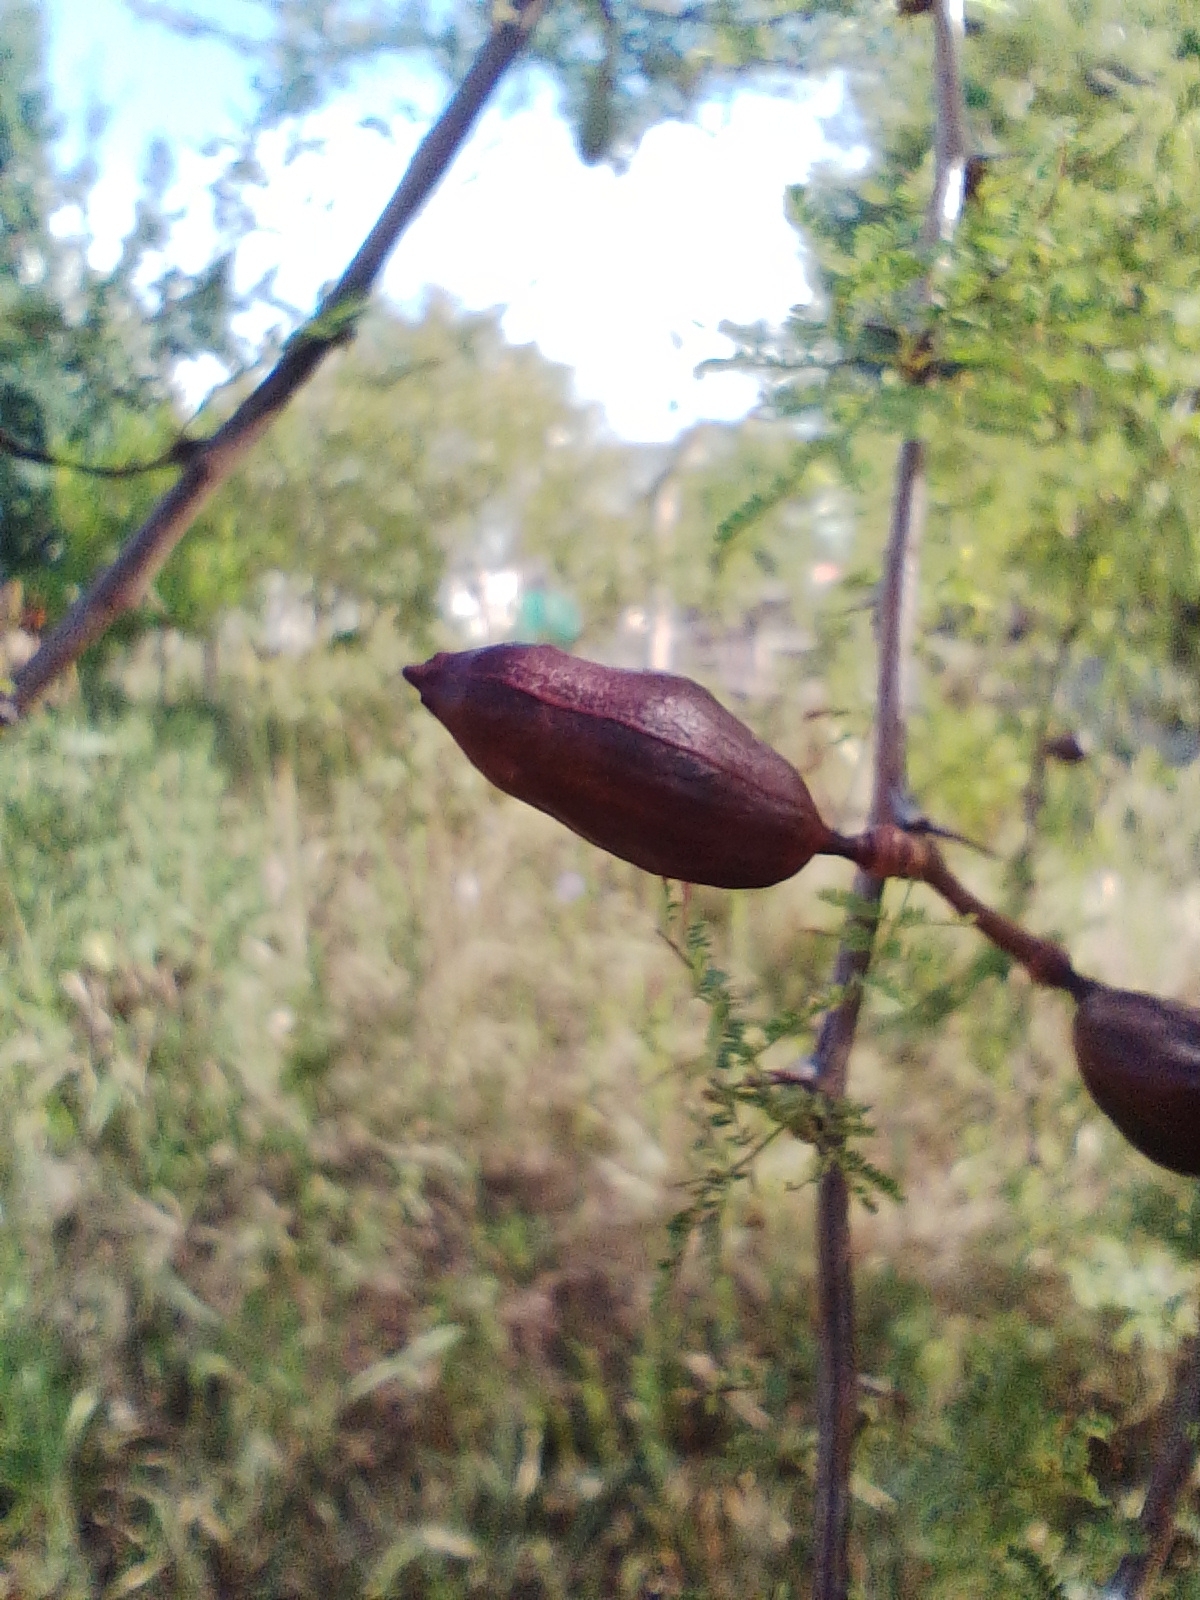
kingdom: Plantae
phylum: Tracheophyta
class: Magnoliopsida
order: Fabales
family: Fabaceae
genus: Vachellia
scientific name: Vachellia caven
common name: Roman cassie
